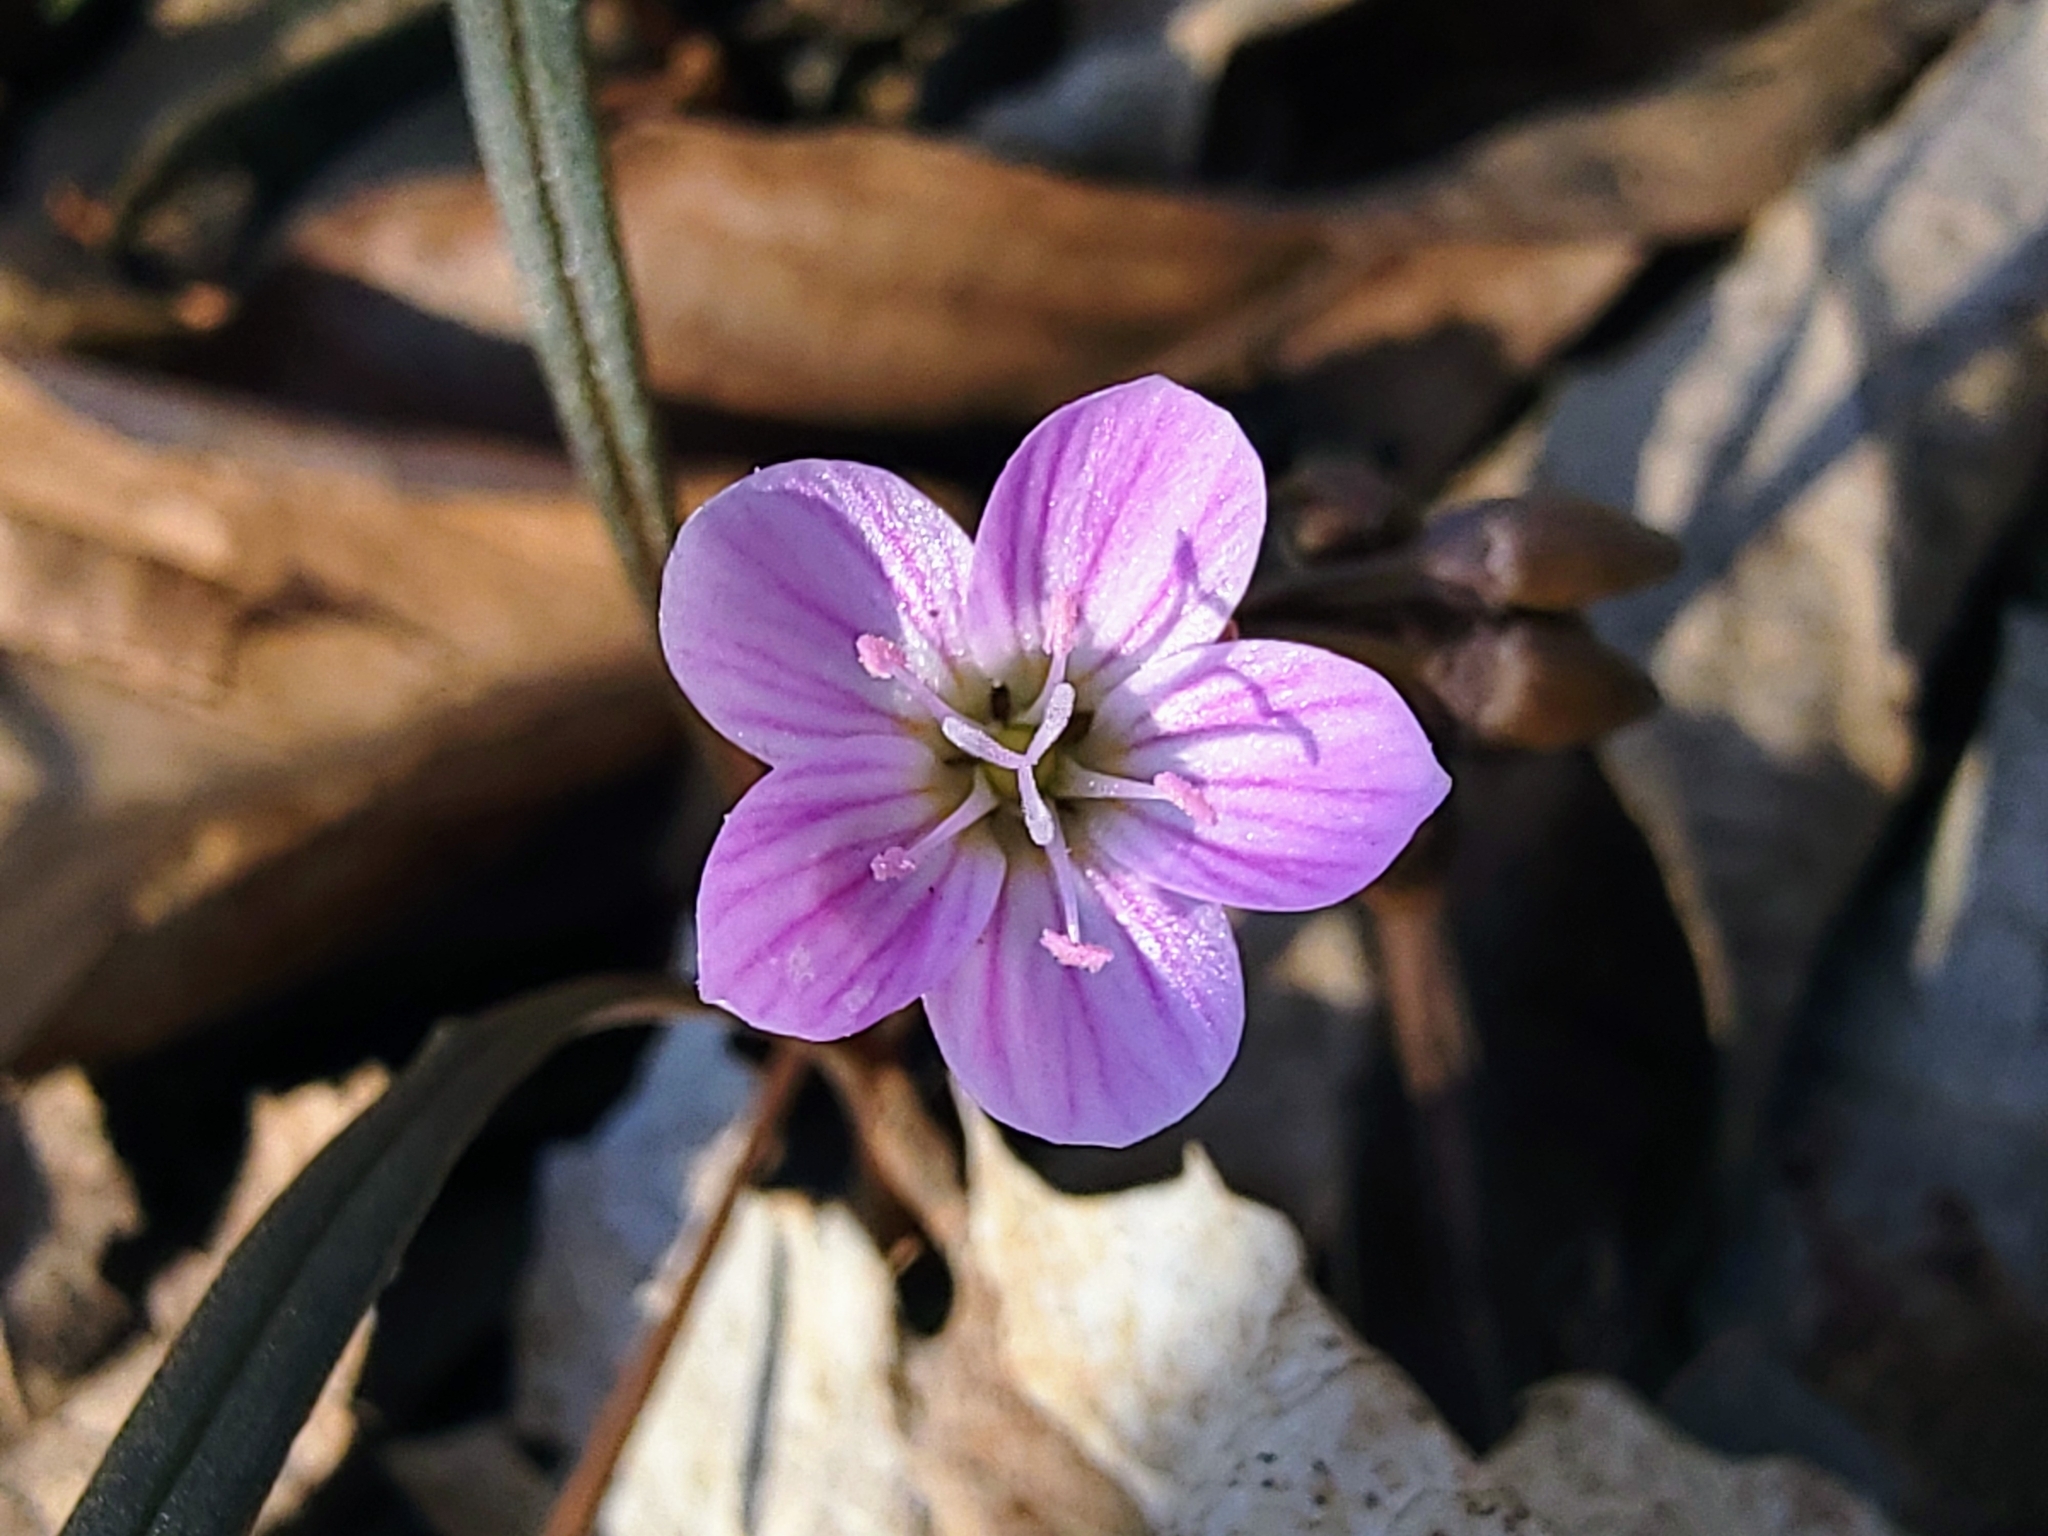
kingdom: Plantae
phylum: Tracheophyta
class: Magnoliopsida
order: Caryophyllales
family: Montiaceae
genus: Claytonia
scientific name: Claytonia virginica
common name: Virginia springbeauty
